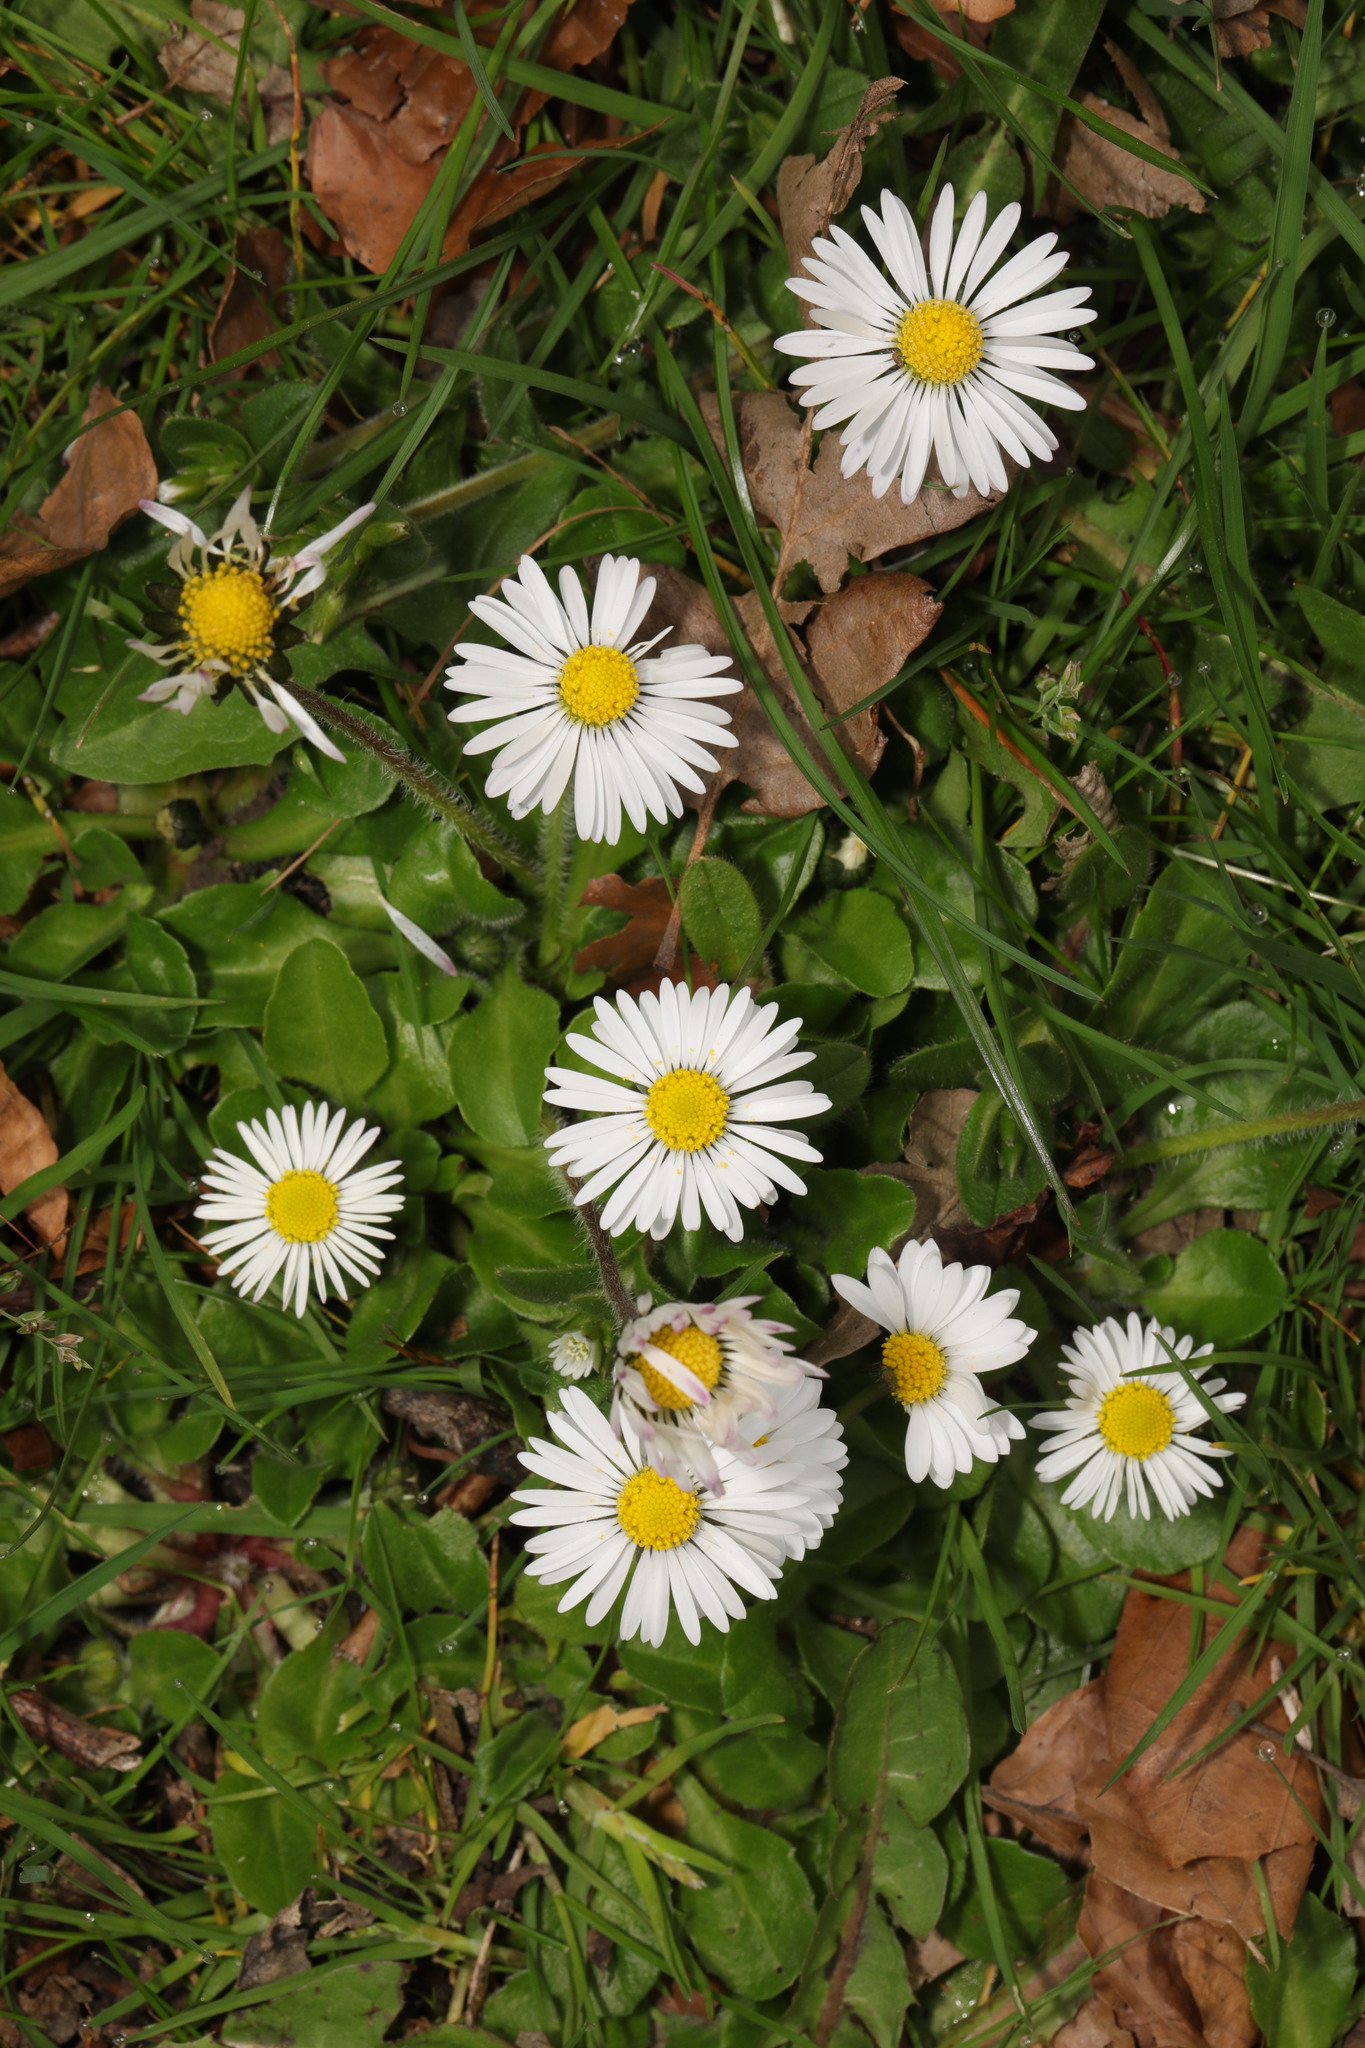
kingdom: Plantae
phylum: Tracheophyta
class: Magnoliopsida
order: Asterales
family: Asteraceae
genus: Bellis
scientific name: Bellis perennis
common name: Lawndaisy
